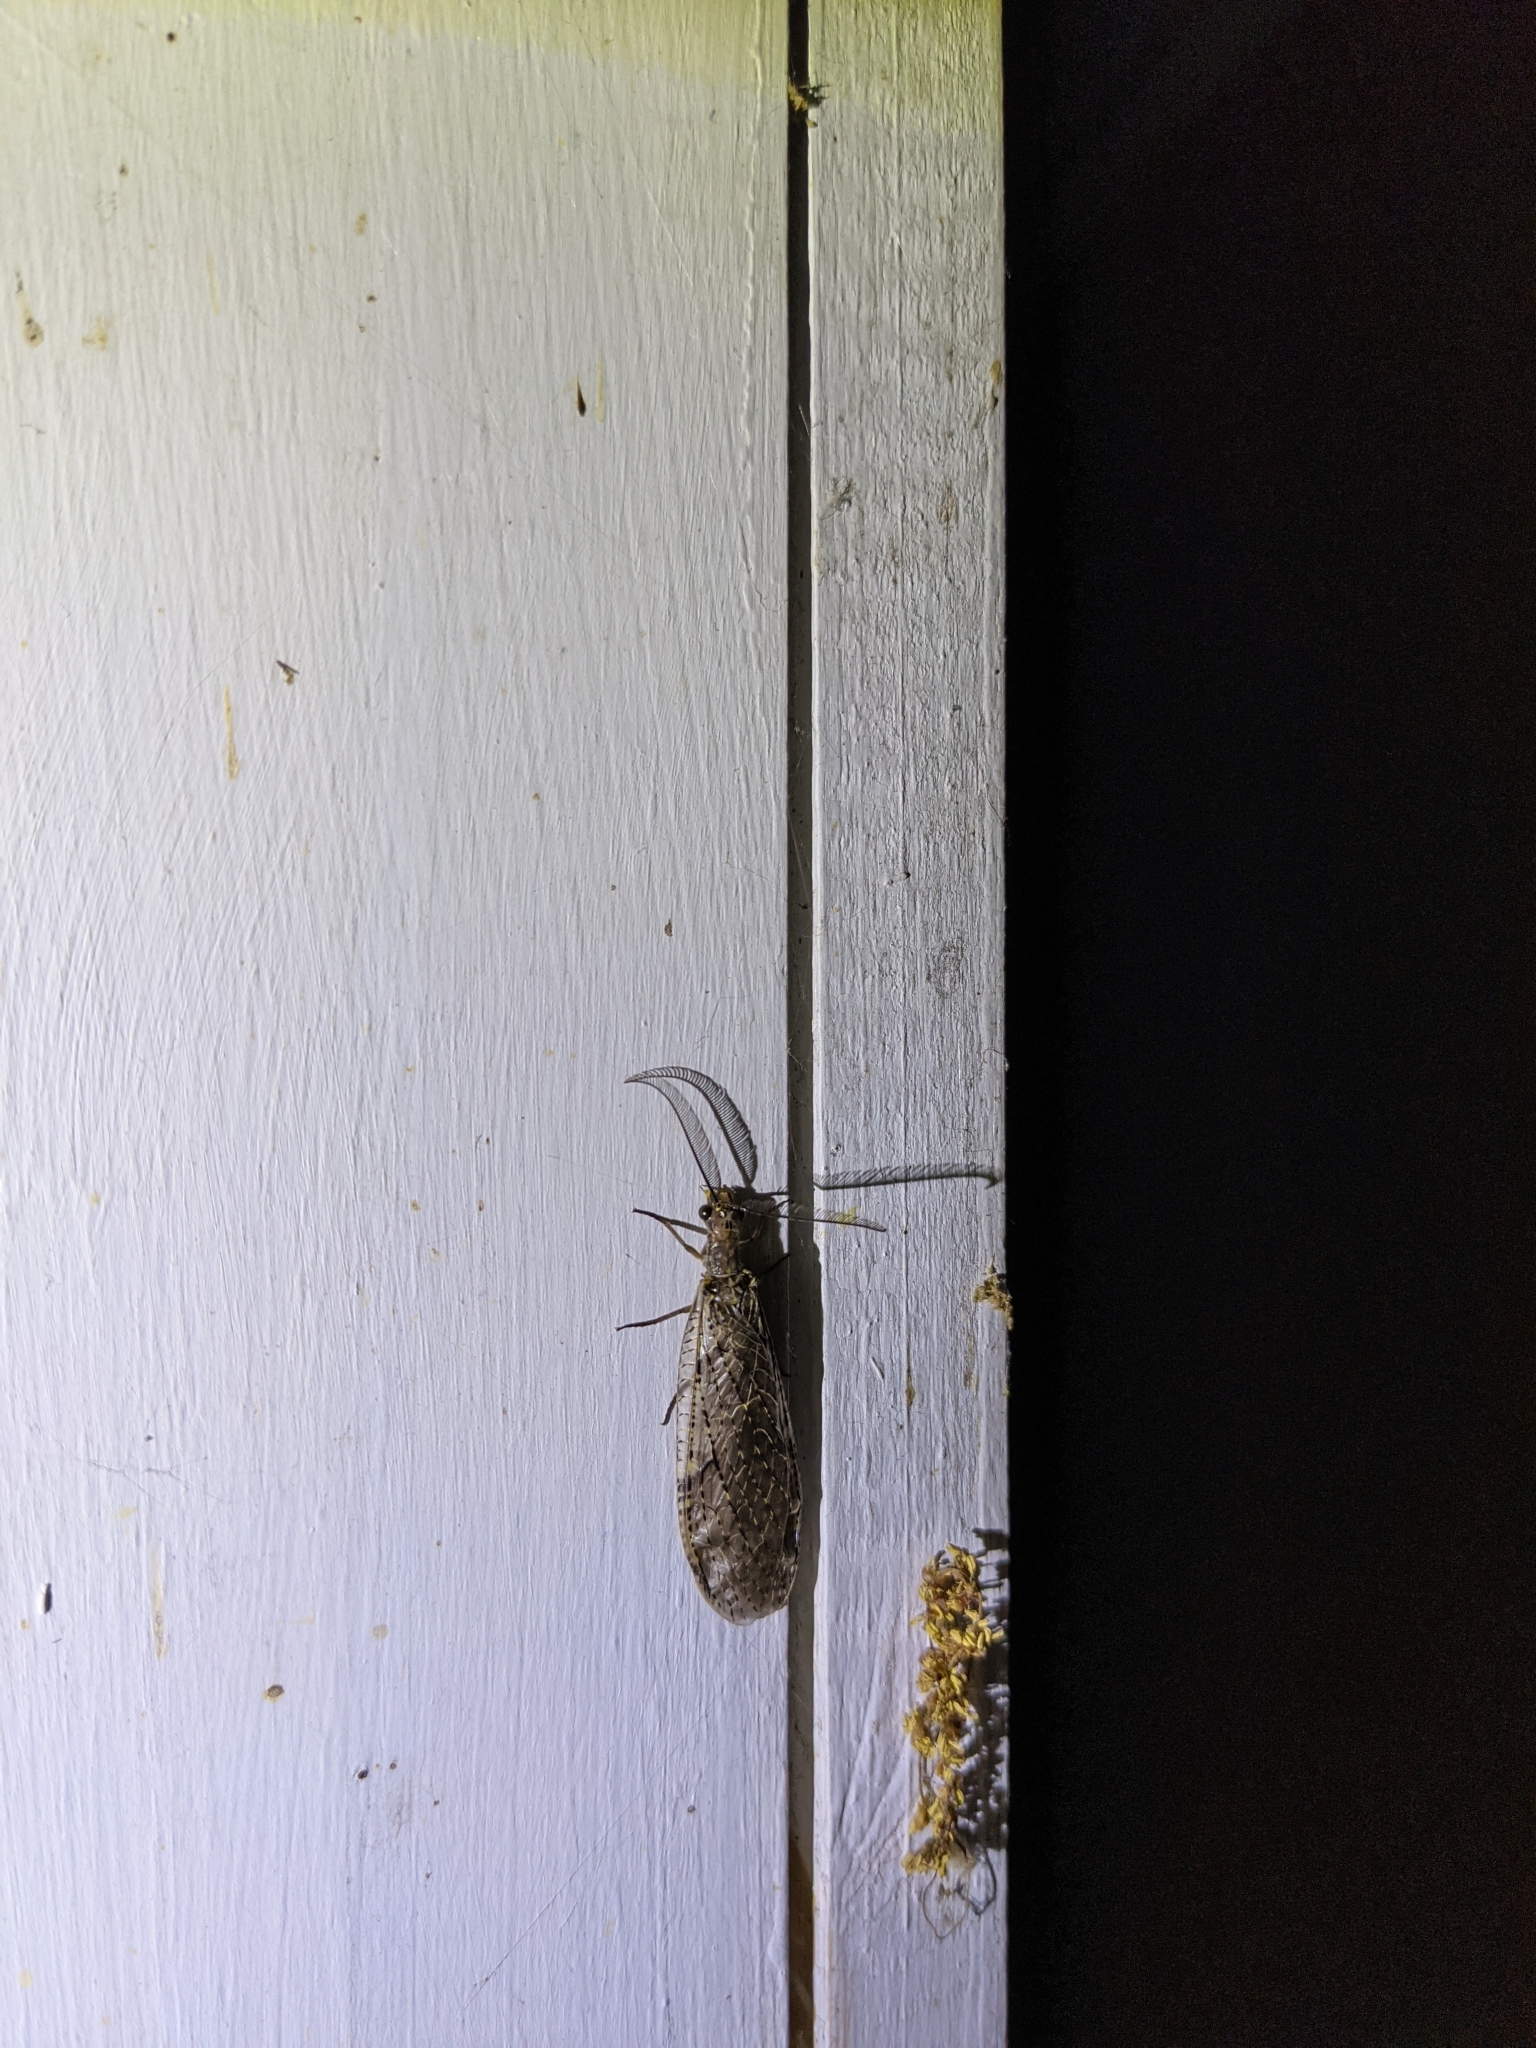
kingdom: Animalia
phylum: Arthropoda
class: Insecta
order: Megaloptera
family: Corydalidae
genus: Chauliodes
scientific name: Chauliodes rastricornis
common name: Spring fishfly
